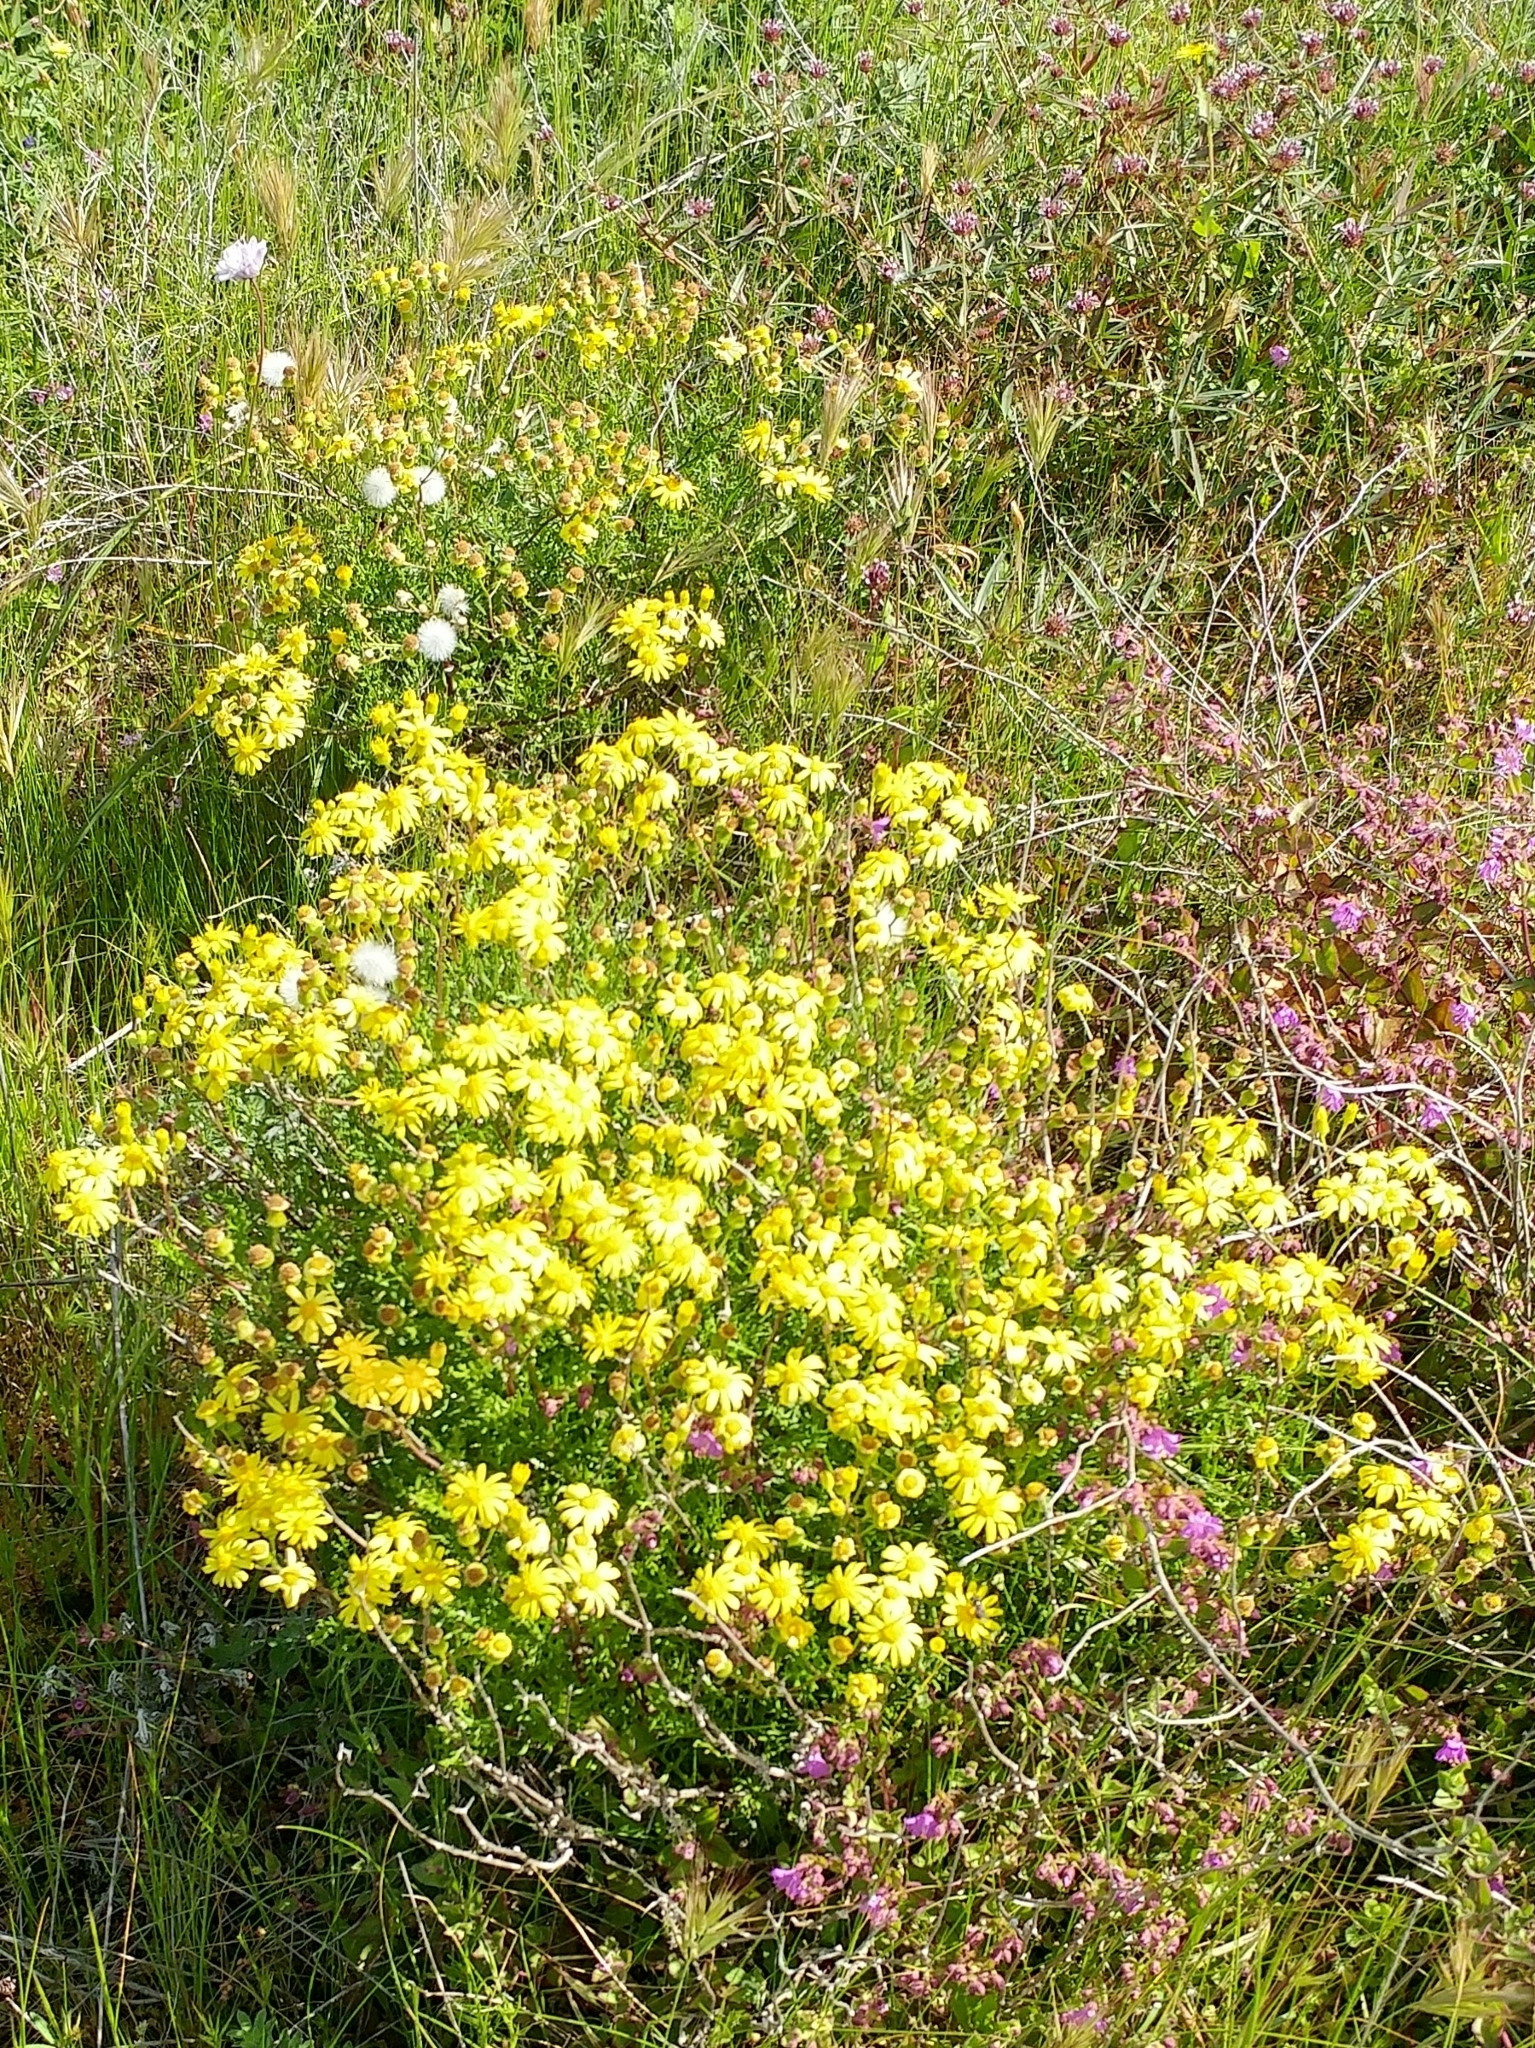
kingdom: Plantae
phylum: Tracheophyta
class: Magnoliopsida
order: Asterales
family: Asteraceae
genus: Senecio
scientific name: Senecio lyonii
